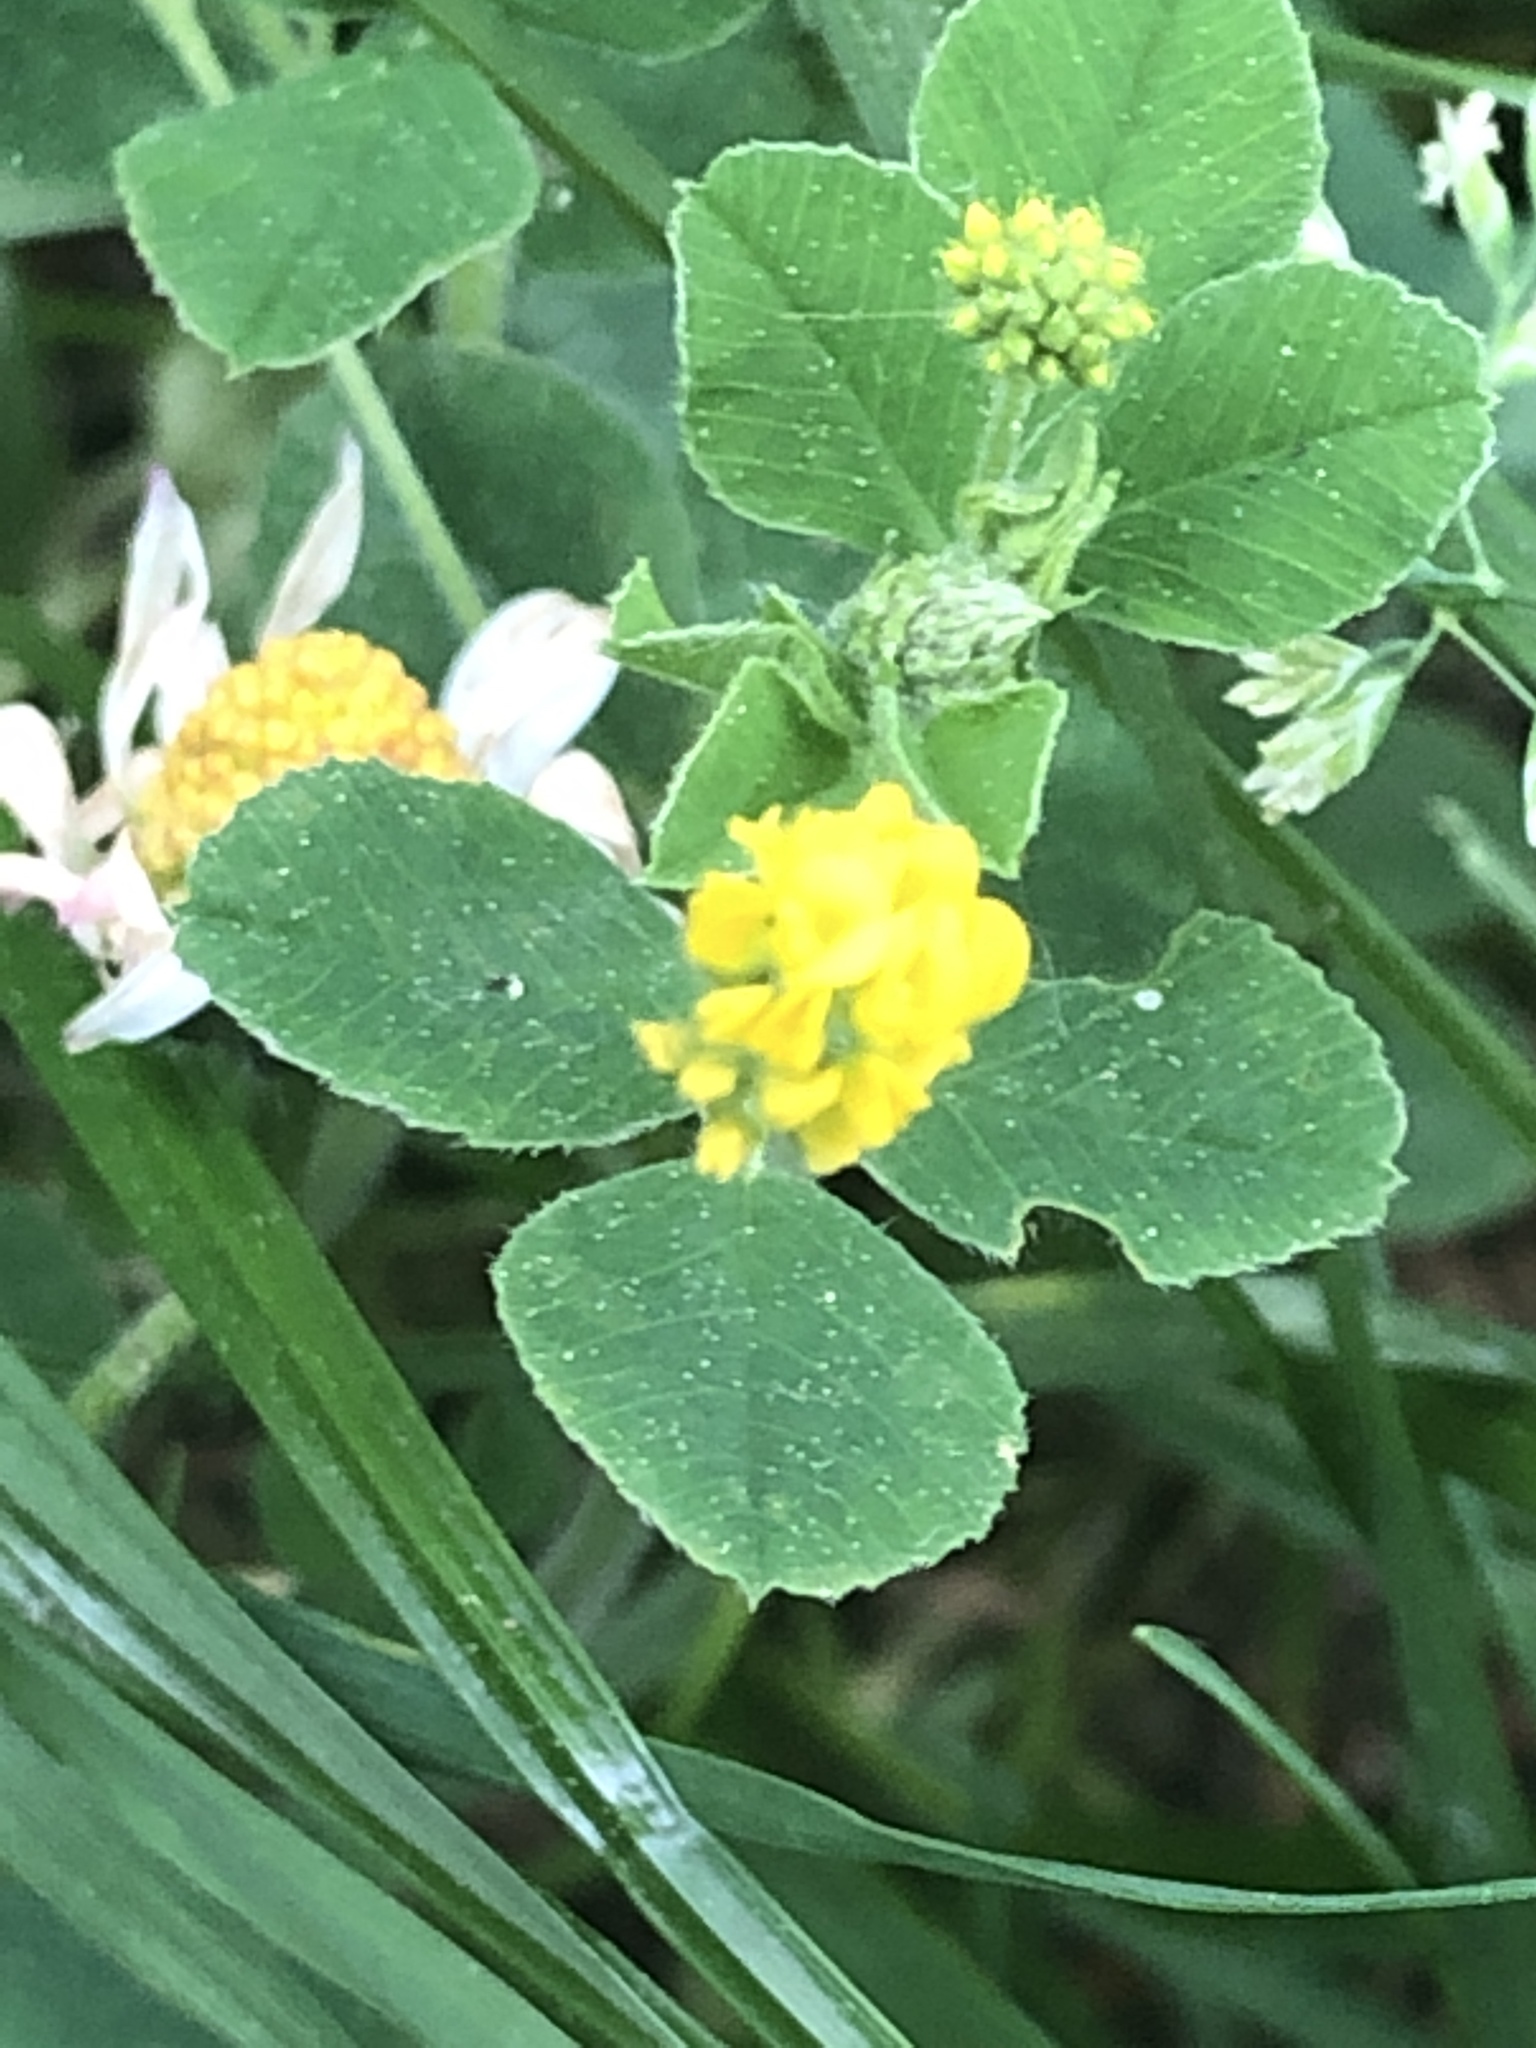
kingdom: Plantae
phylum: Tracheophyta
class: Magnoliopsida
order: Fabales
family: Fabaceae
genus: Medicago
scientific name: Medicago lupulina
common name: Black medick
